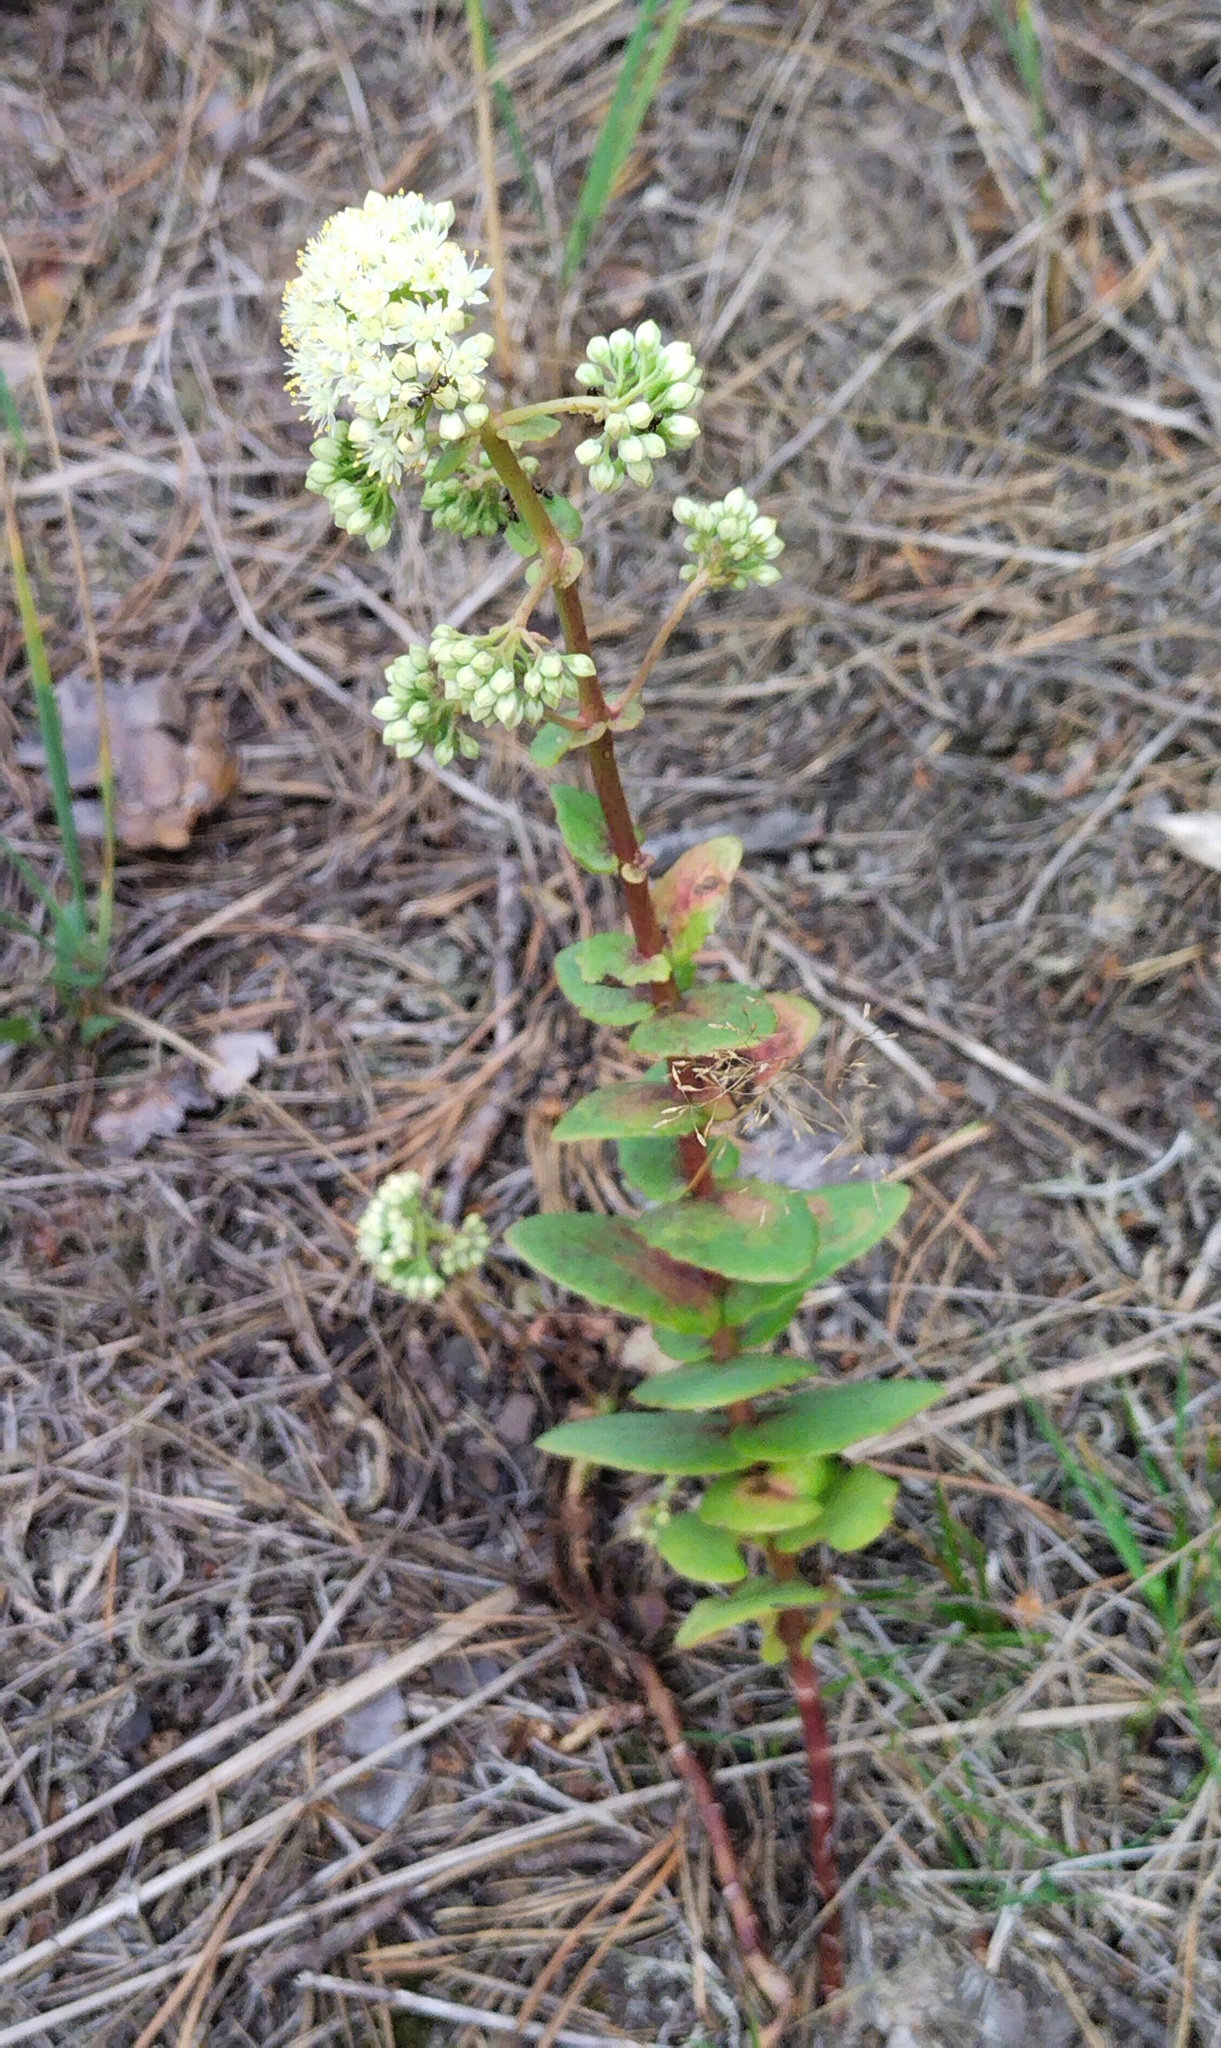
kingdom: Plantae
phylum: Tracheophyta
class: Magnoliopsida
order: Saxifragales
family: Crassulaceae
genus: Hylotelephium
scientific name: Hylotelephium maximum
